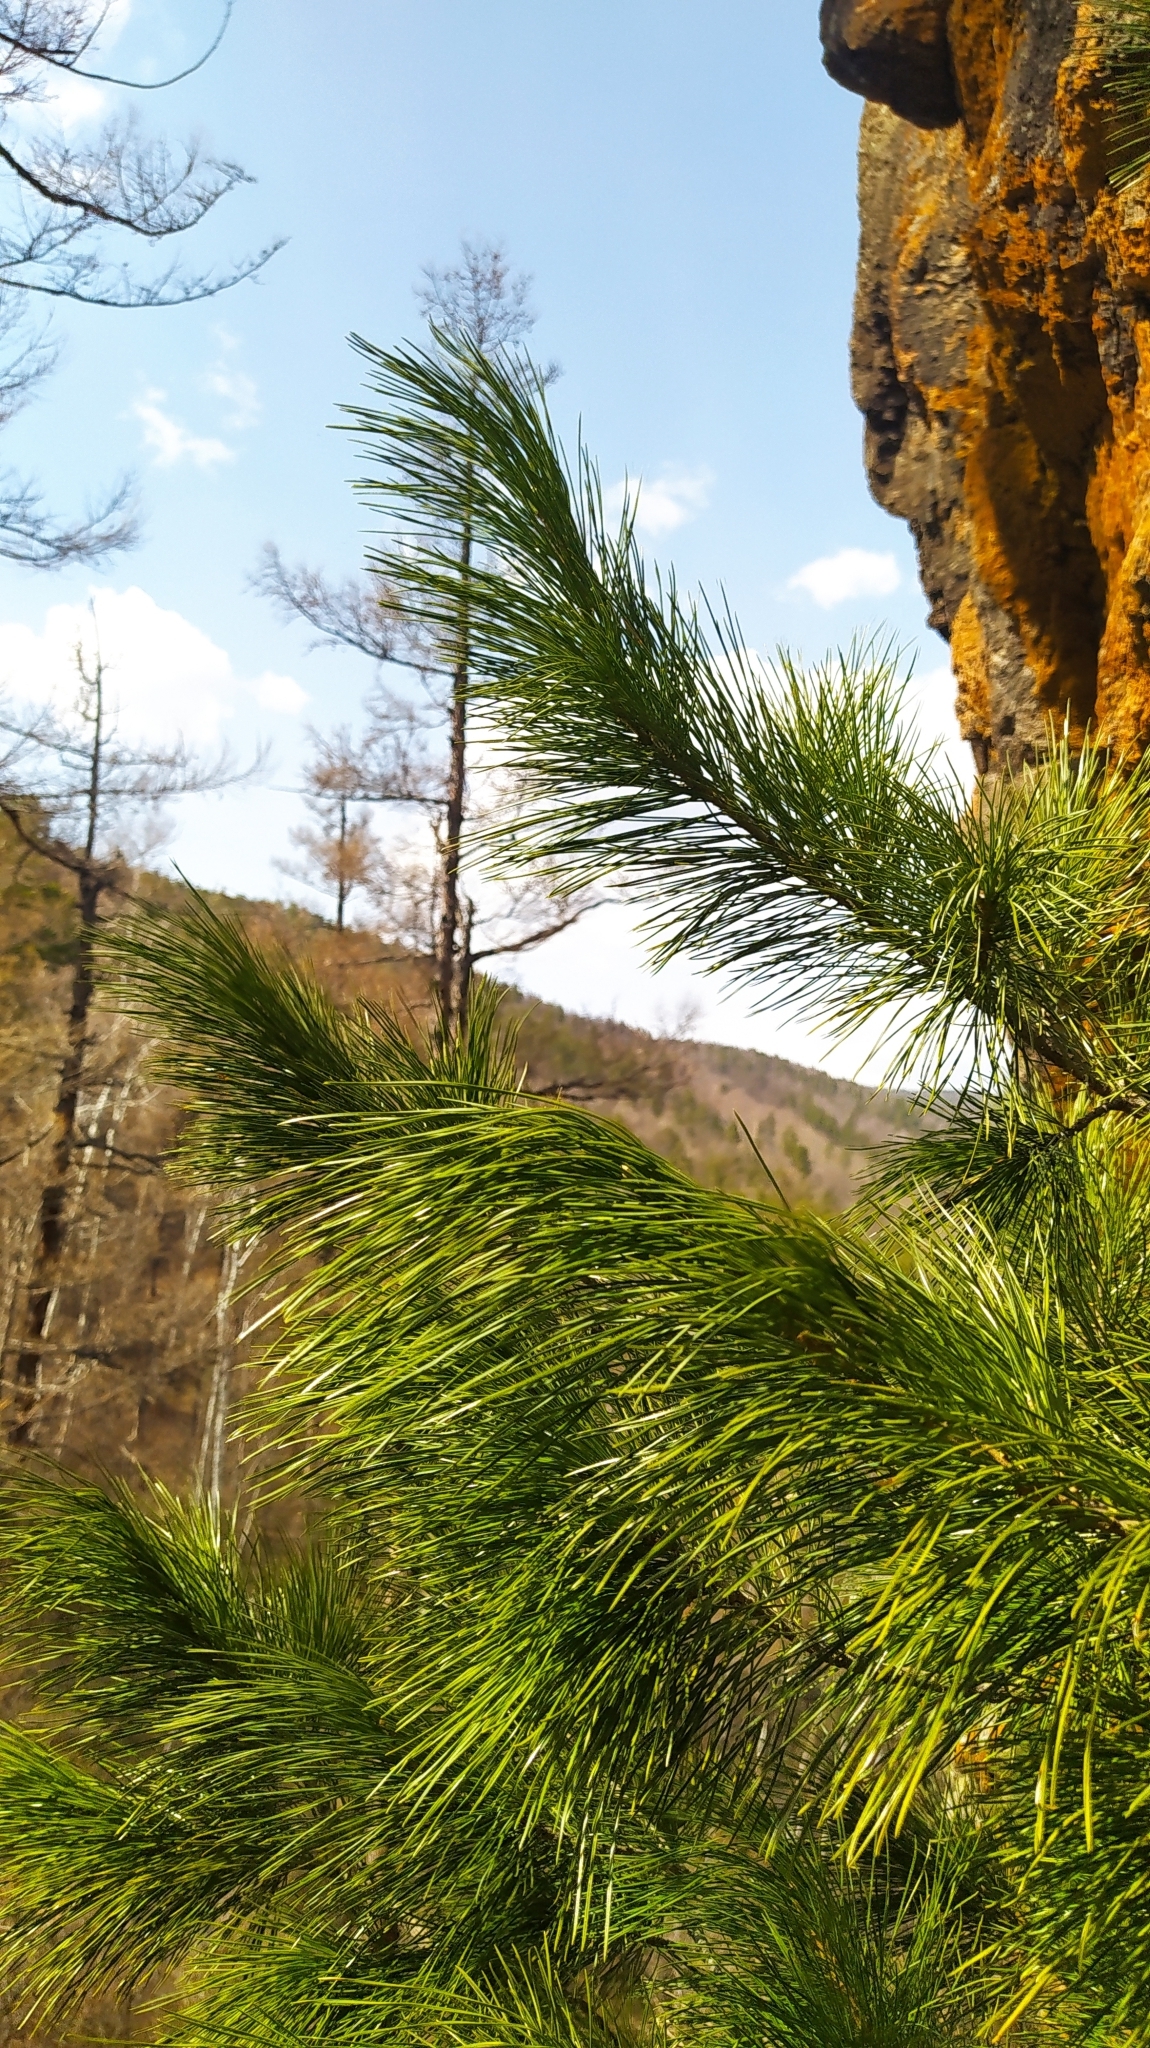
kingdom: Plantae
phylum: Tracheophyta
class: Pinopsida
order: Pinales
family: Pinaceae
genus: Pinus
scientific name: Pinus sibirica
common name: Siberian pine
